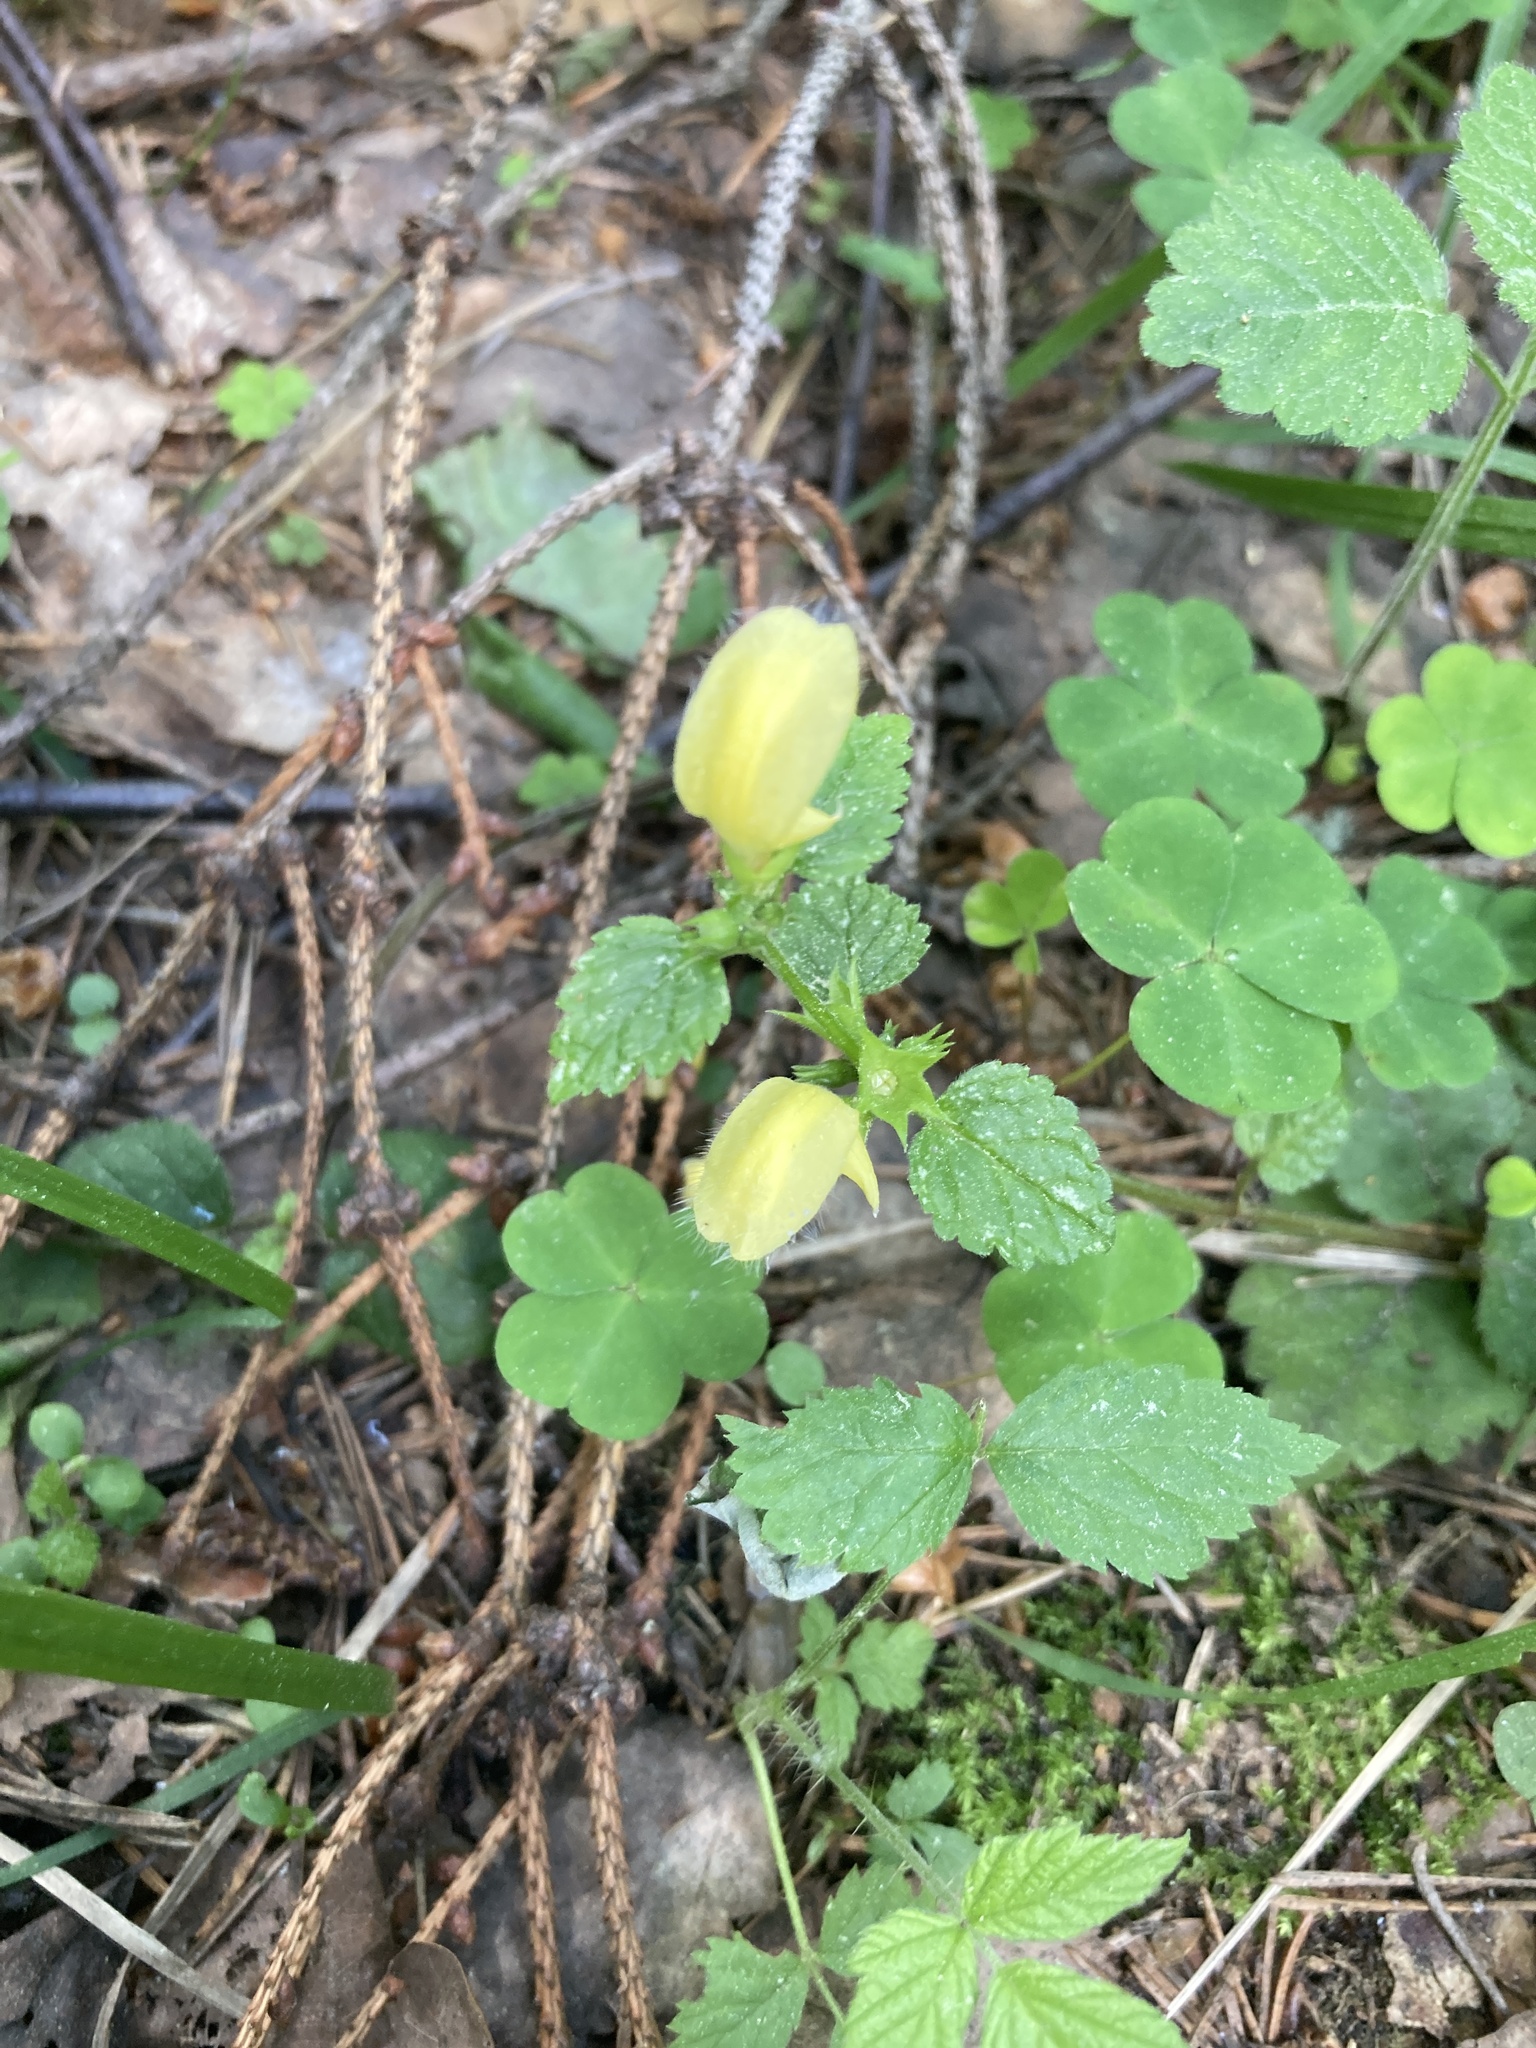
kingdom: Plantae
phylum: Tracheophyta
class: Magnoliopsida
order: Lamiales
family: Lamiaceae
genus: Lamium
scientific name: Lamium galeobdolon
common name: Yellow archangel
